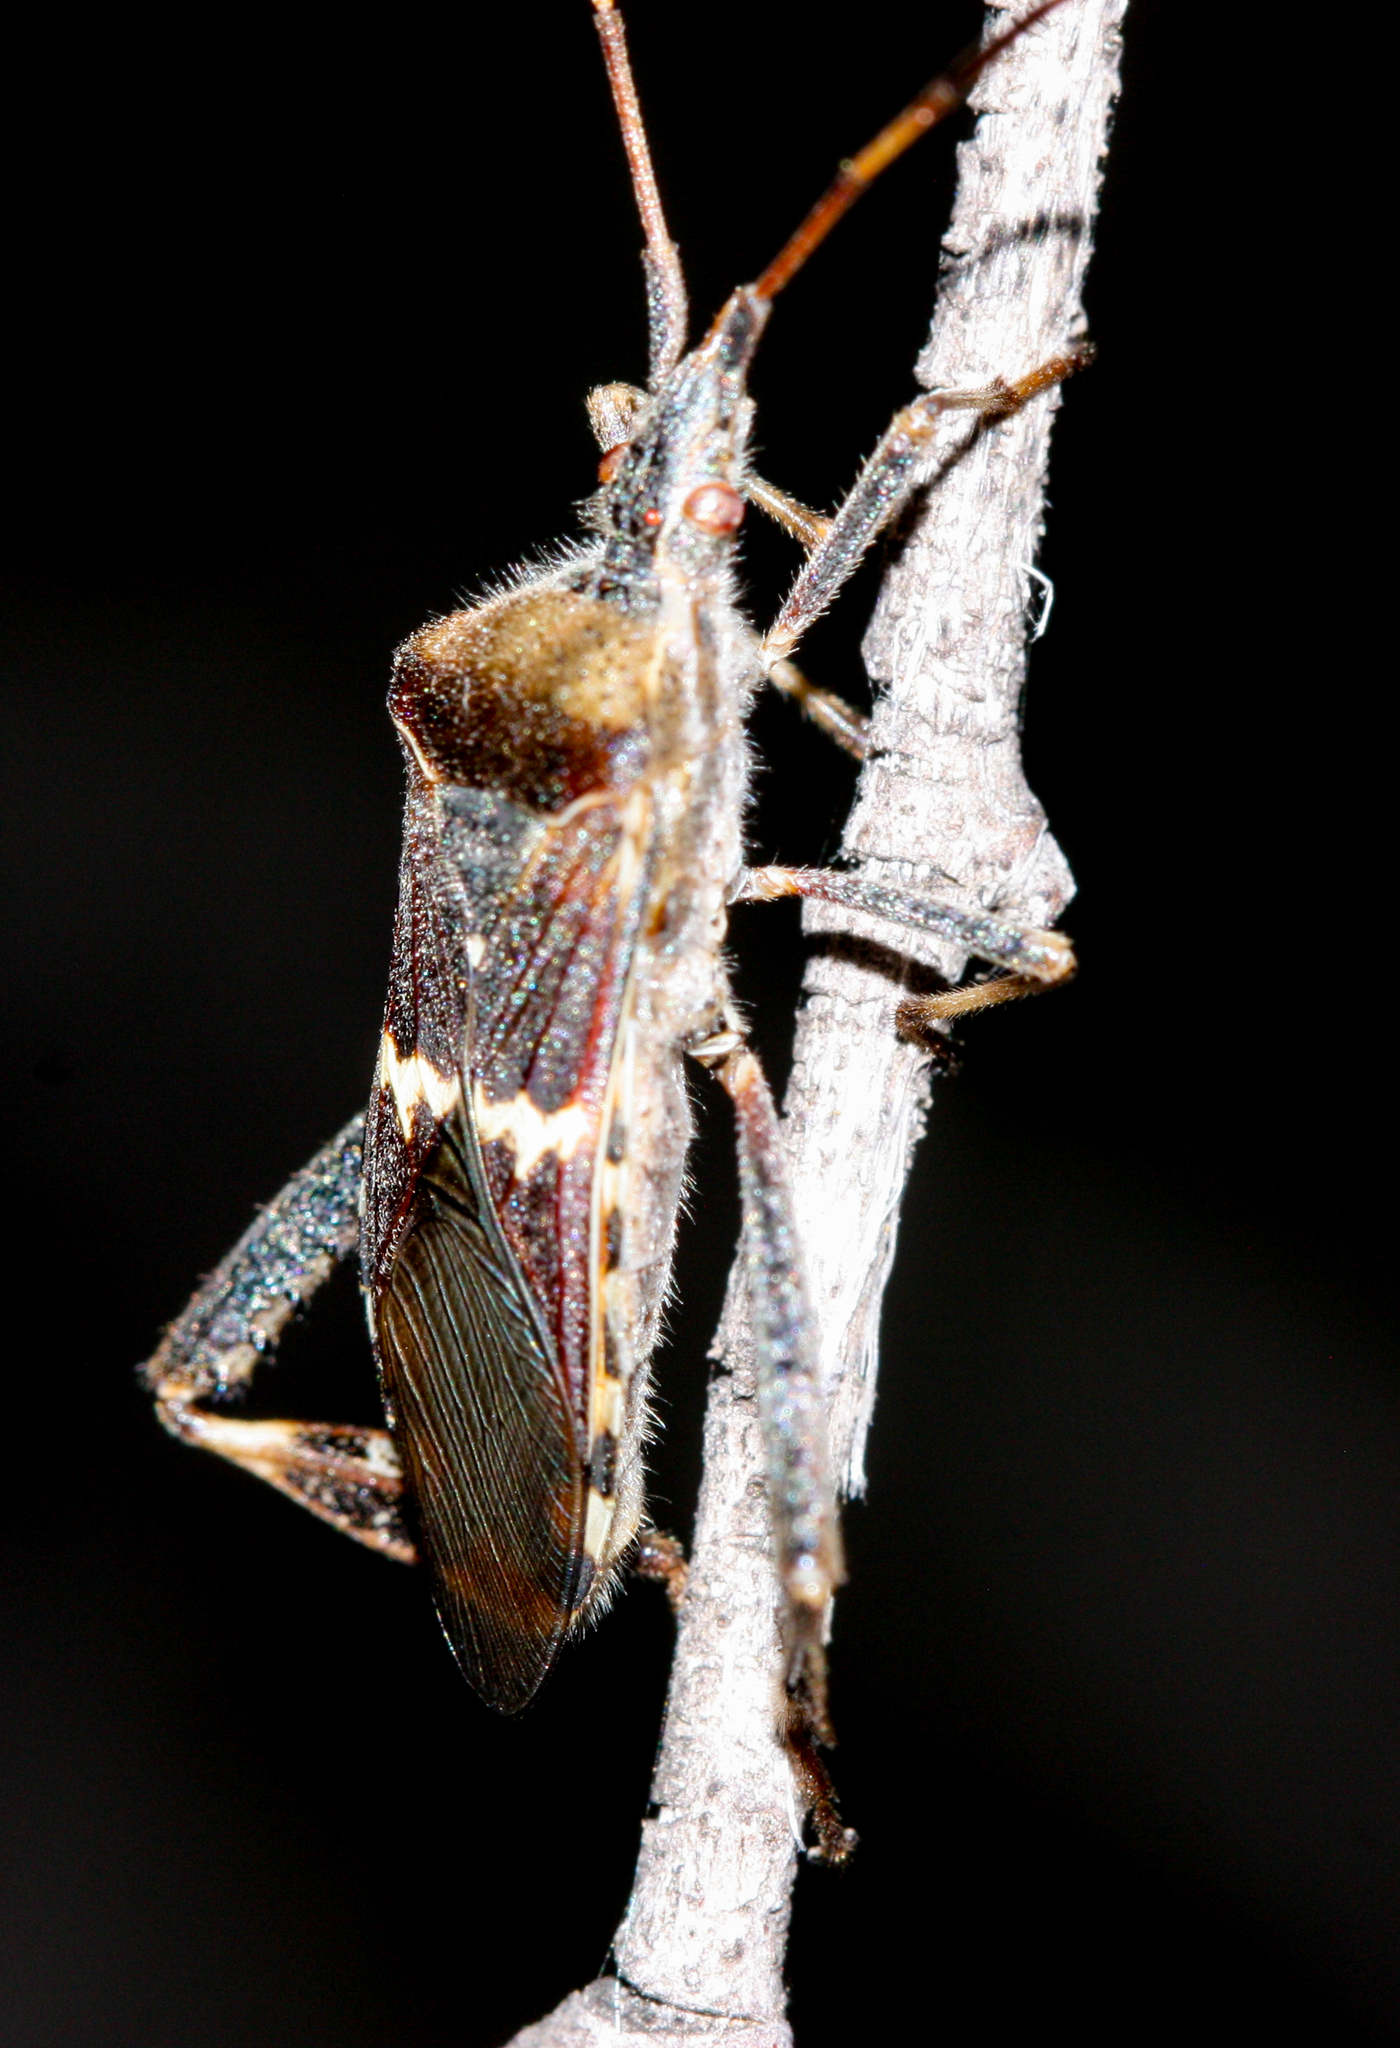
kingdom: Animalia
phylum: Arthropoda
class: Insecta
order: Hemiptera
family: Coreidae
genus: Leptoglossus
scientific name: Leptoglossus clypealis
